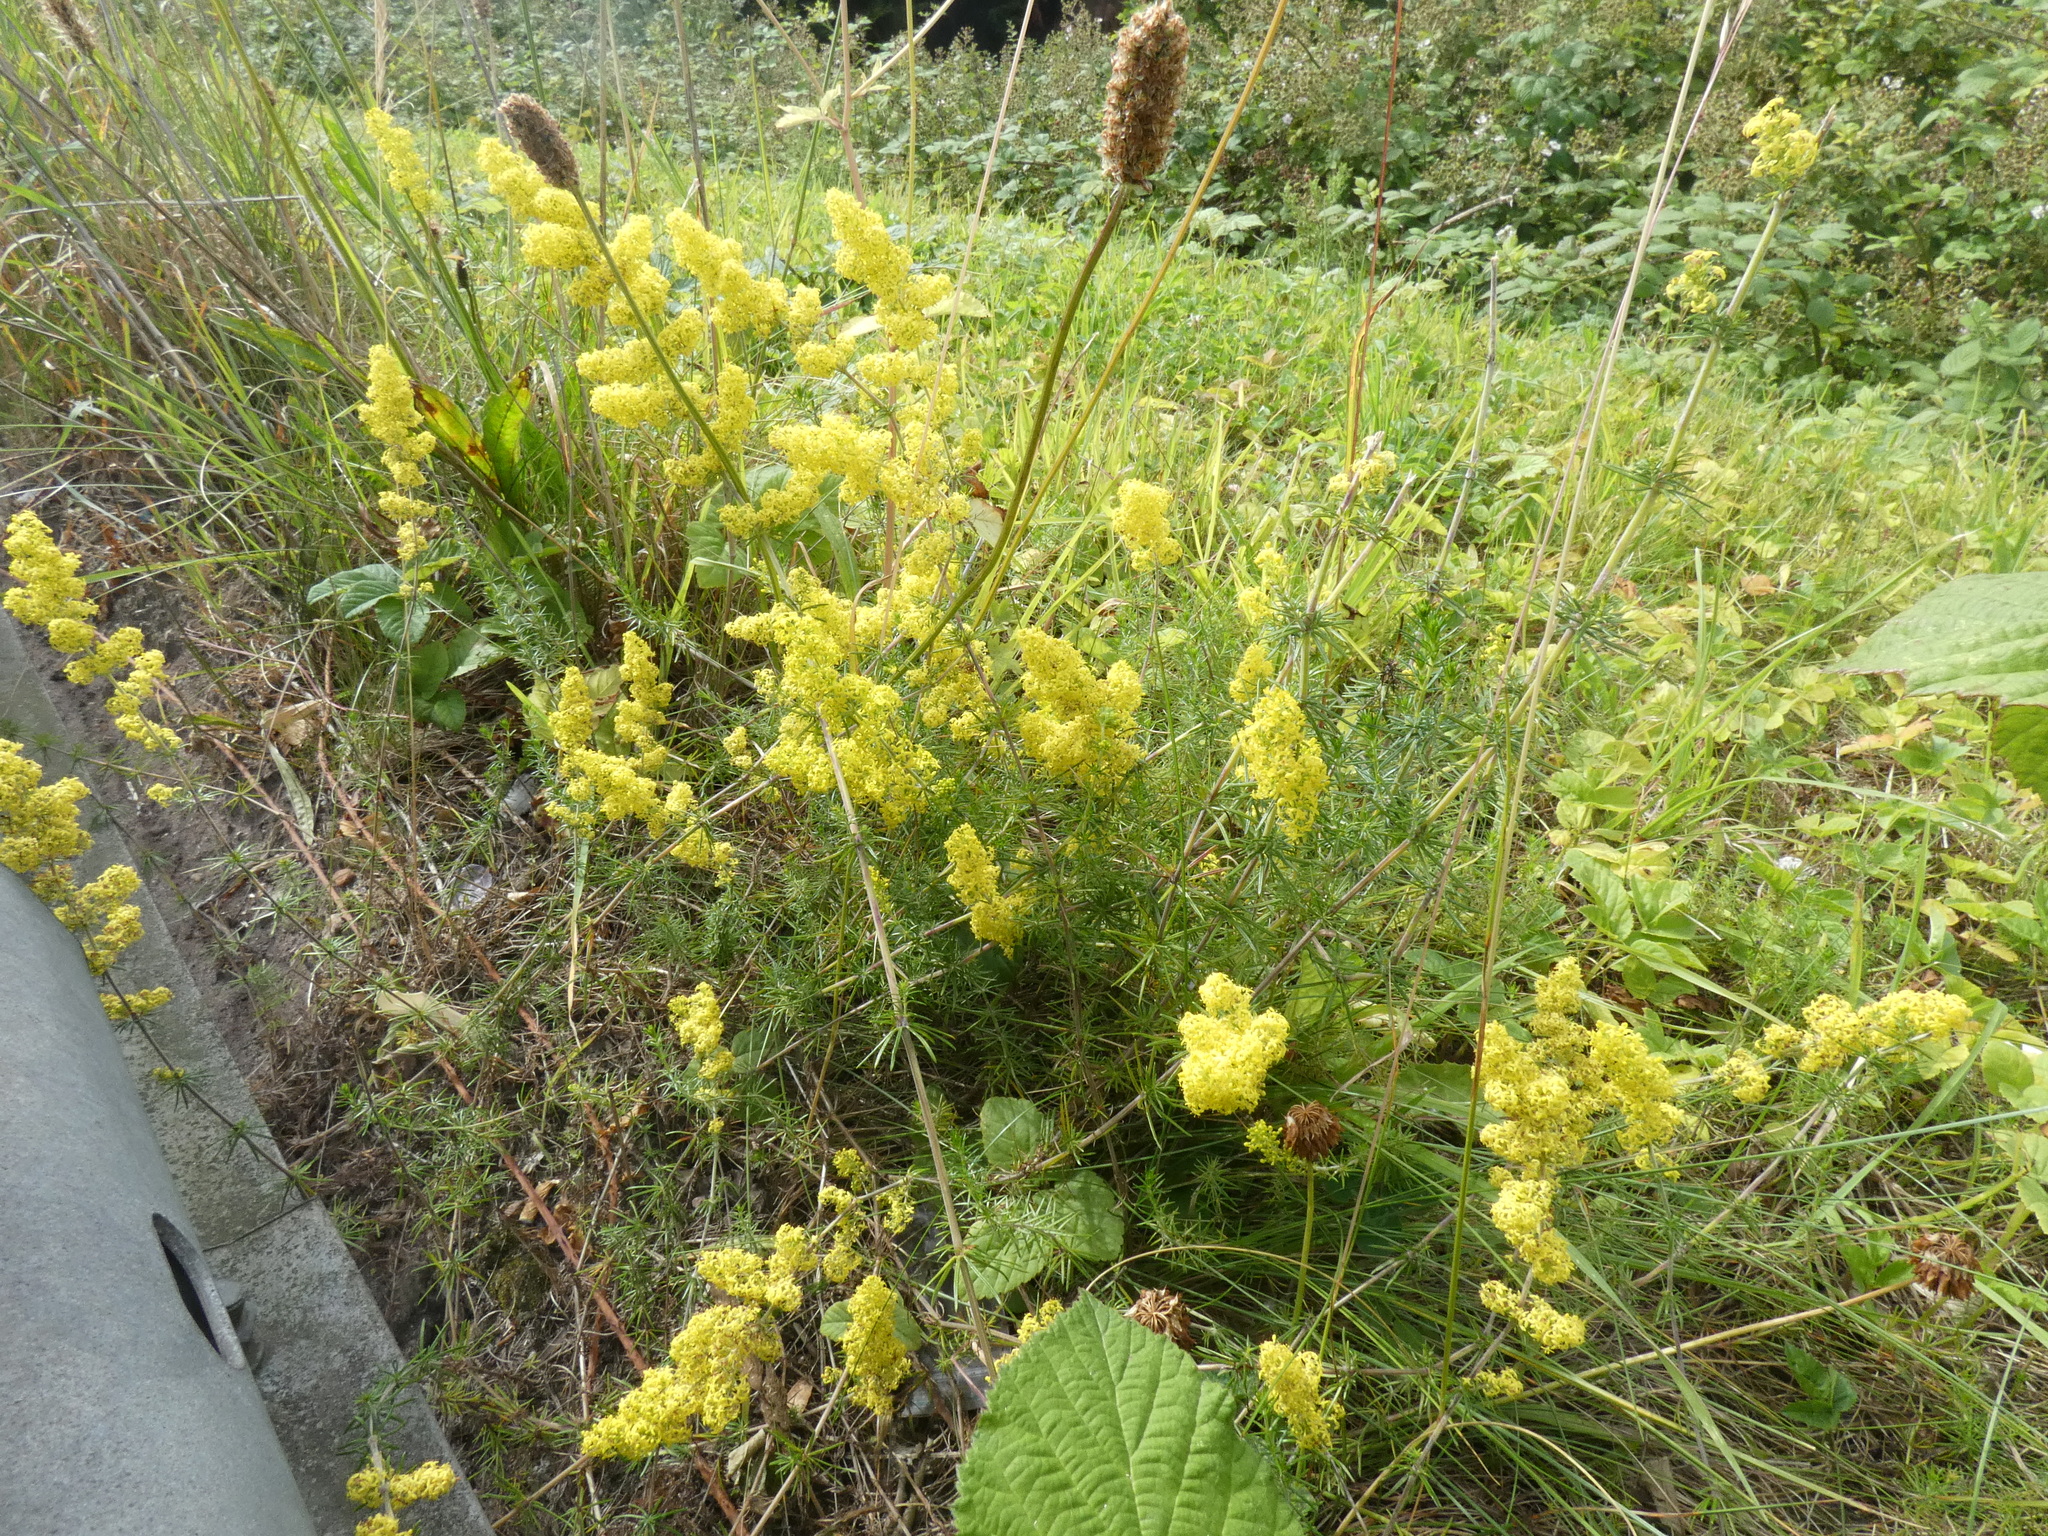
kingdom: Plantae
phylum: Tracheophyta
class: Magnoliopsida
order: Gentianales
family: Rubiaceae
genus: Galium
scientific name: Galium verum
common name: Lady's bedstraw
